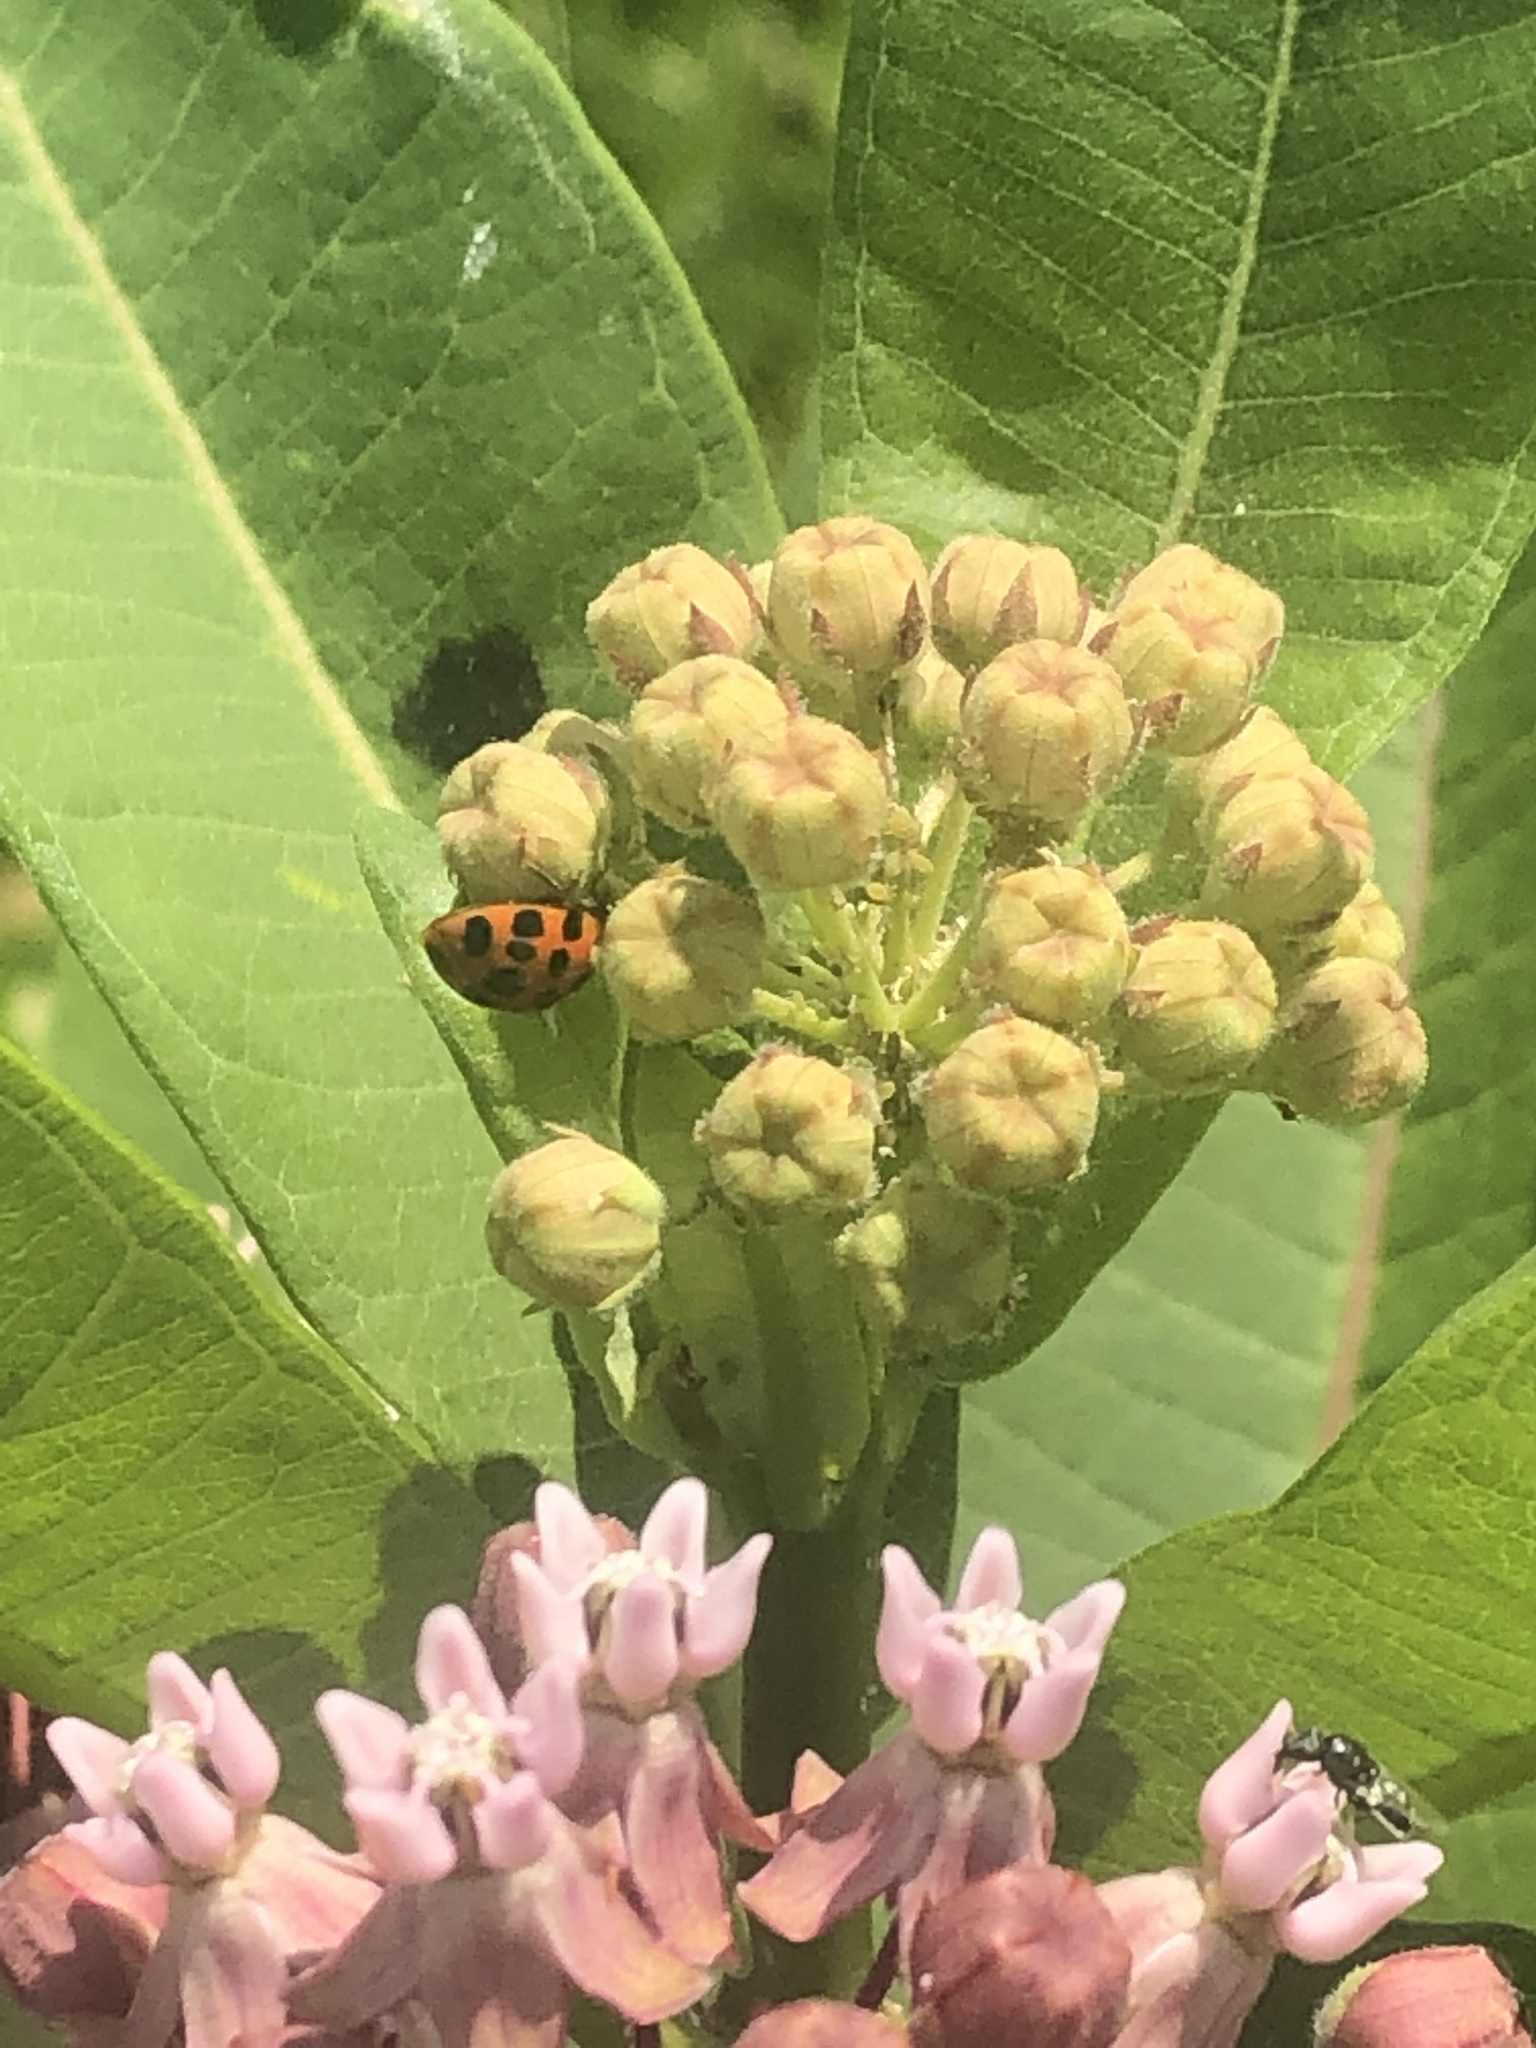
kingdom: Animalia
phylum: Arthropoda
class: Insecta
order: Coleoptera
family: Coccinellidae
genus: Harmonia
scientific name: Harmonia axyridis
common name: Harlequin ladybird
